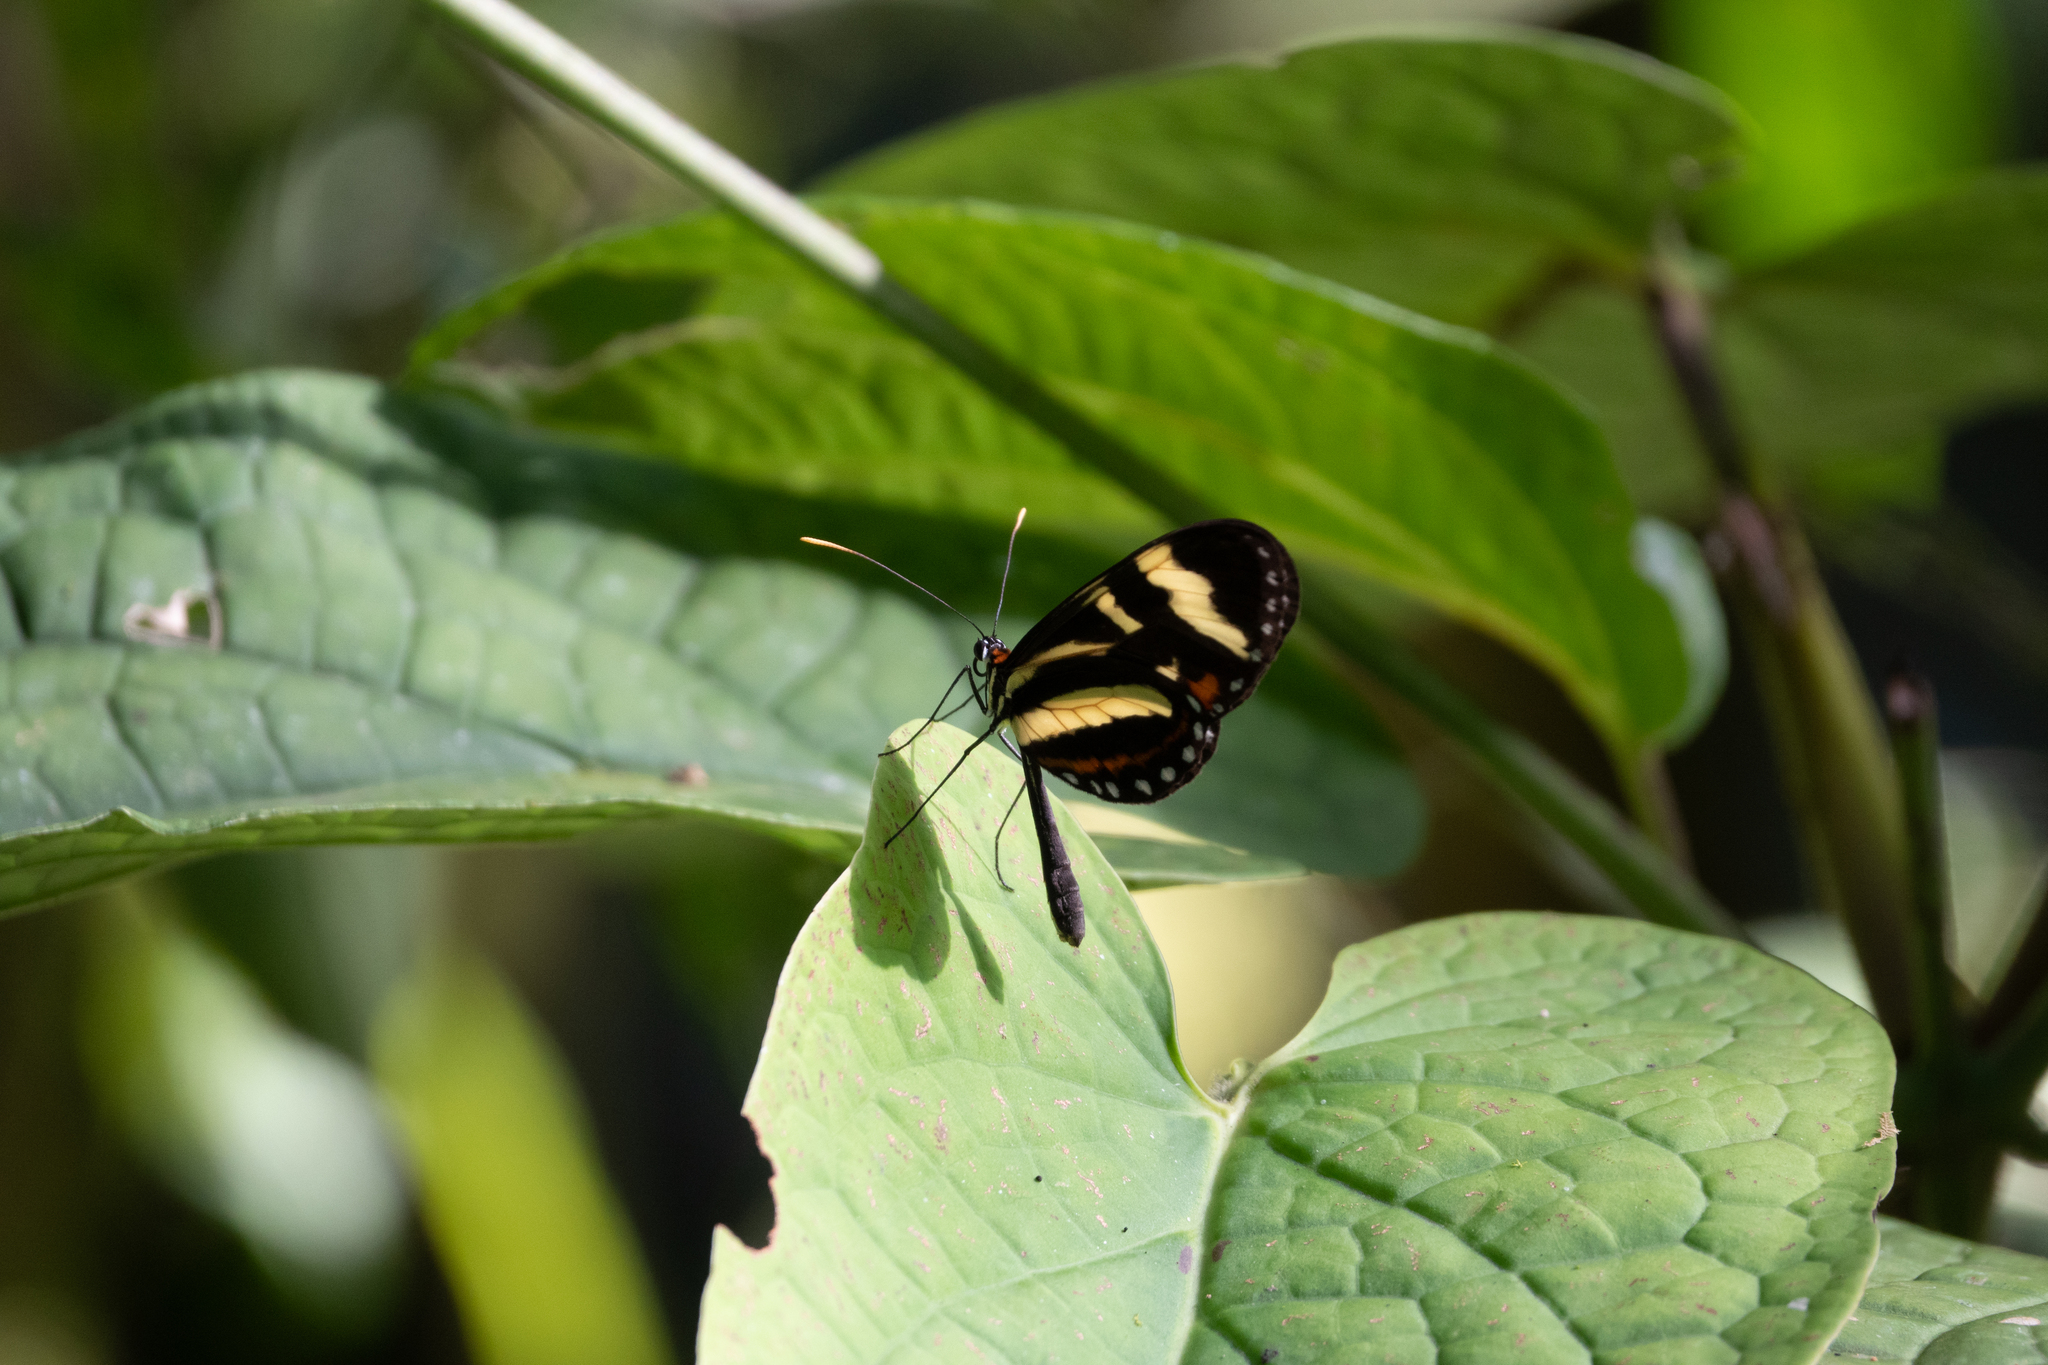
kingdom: Animalia
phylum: Arthropoda
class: Insecta
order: Lepidoptera
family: Nymphalidae
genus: Mechanitis
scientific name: Mechanitis menapis
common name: Menapis tigerwing
